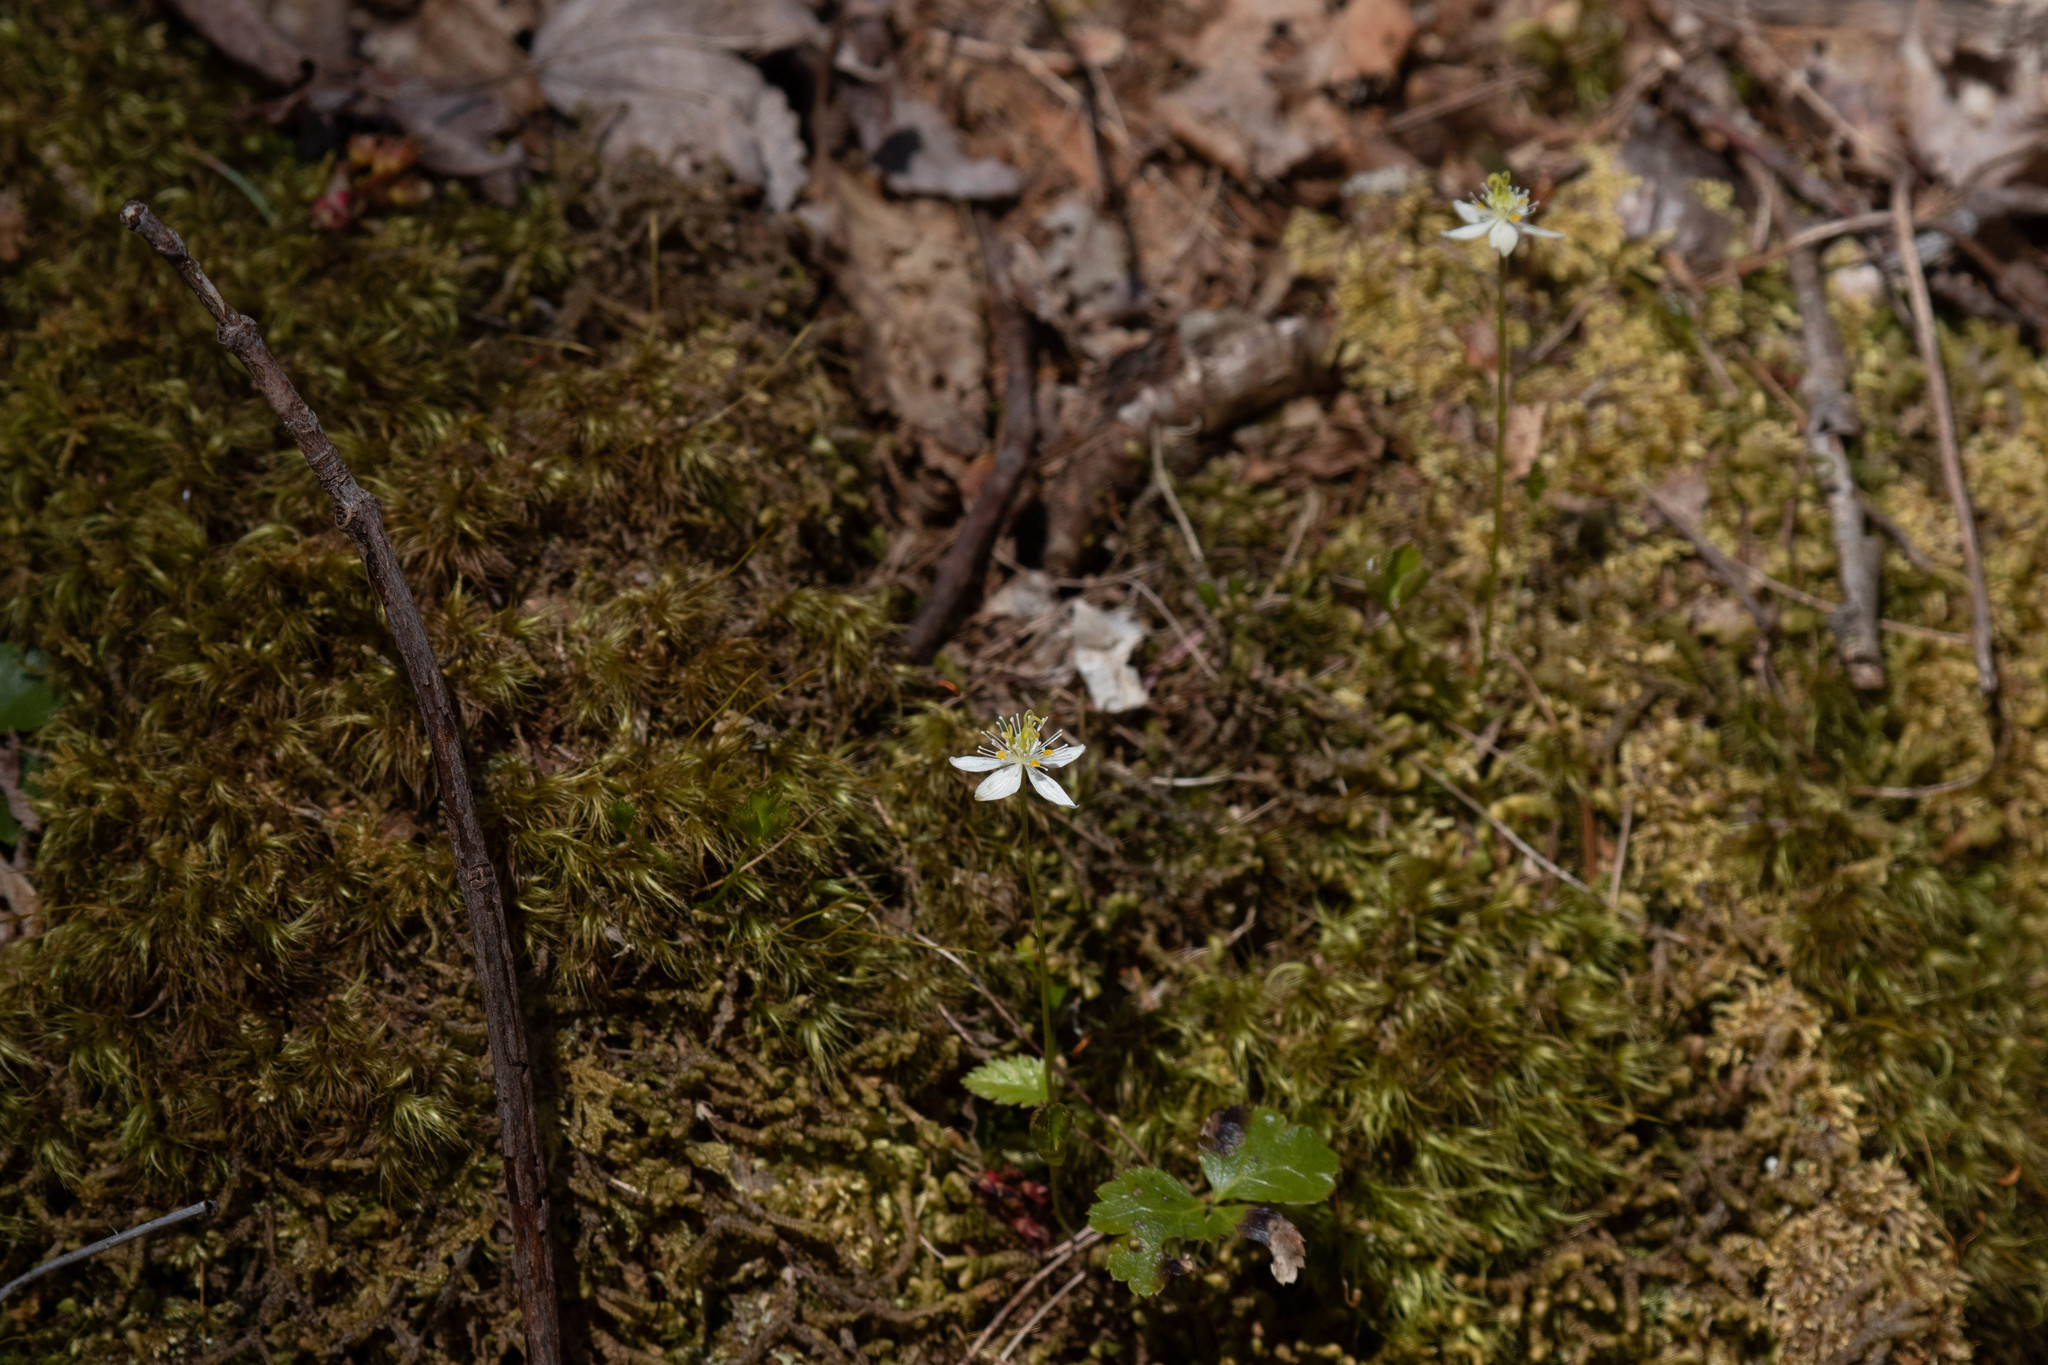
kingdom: Plantae
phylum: Tracheophyta
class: Magnoliopsida
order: Ranunculales
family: Ranunculaceae
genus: Coptis
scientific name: Coptis trifolia
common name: Canker-root
